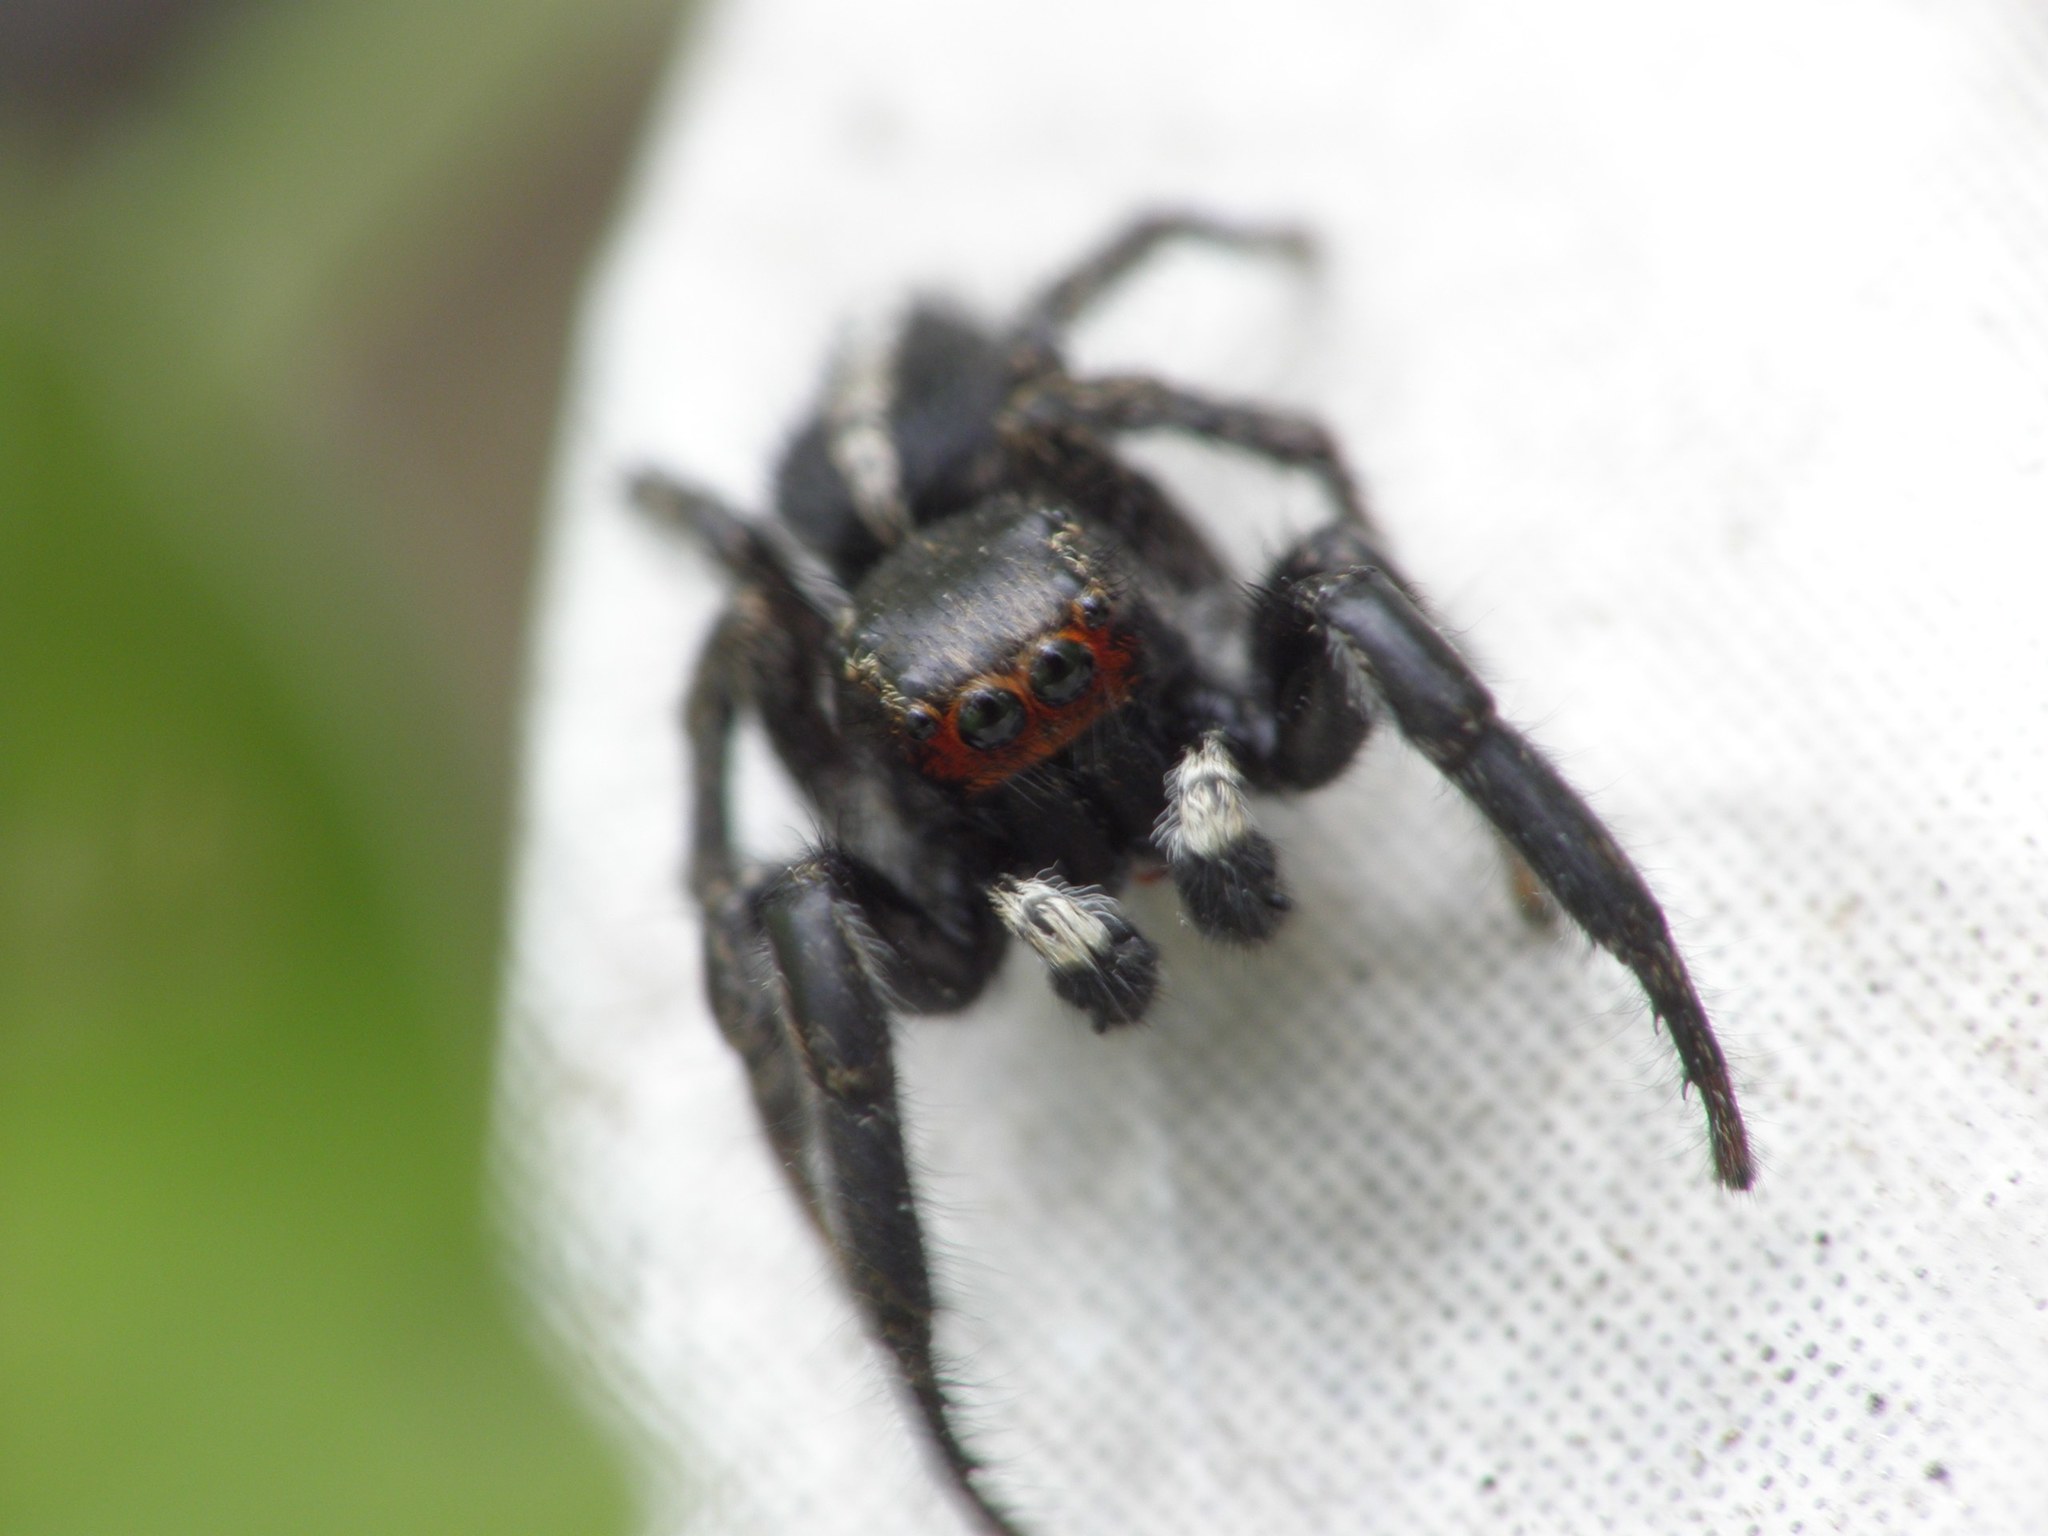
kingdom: Animalia
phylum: Arthropoda
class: Arachnida
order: Araneae
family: Salticidae
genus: Pellenes
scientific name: Pellenes seriatus
